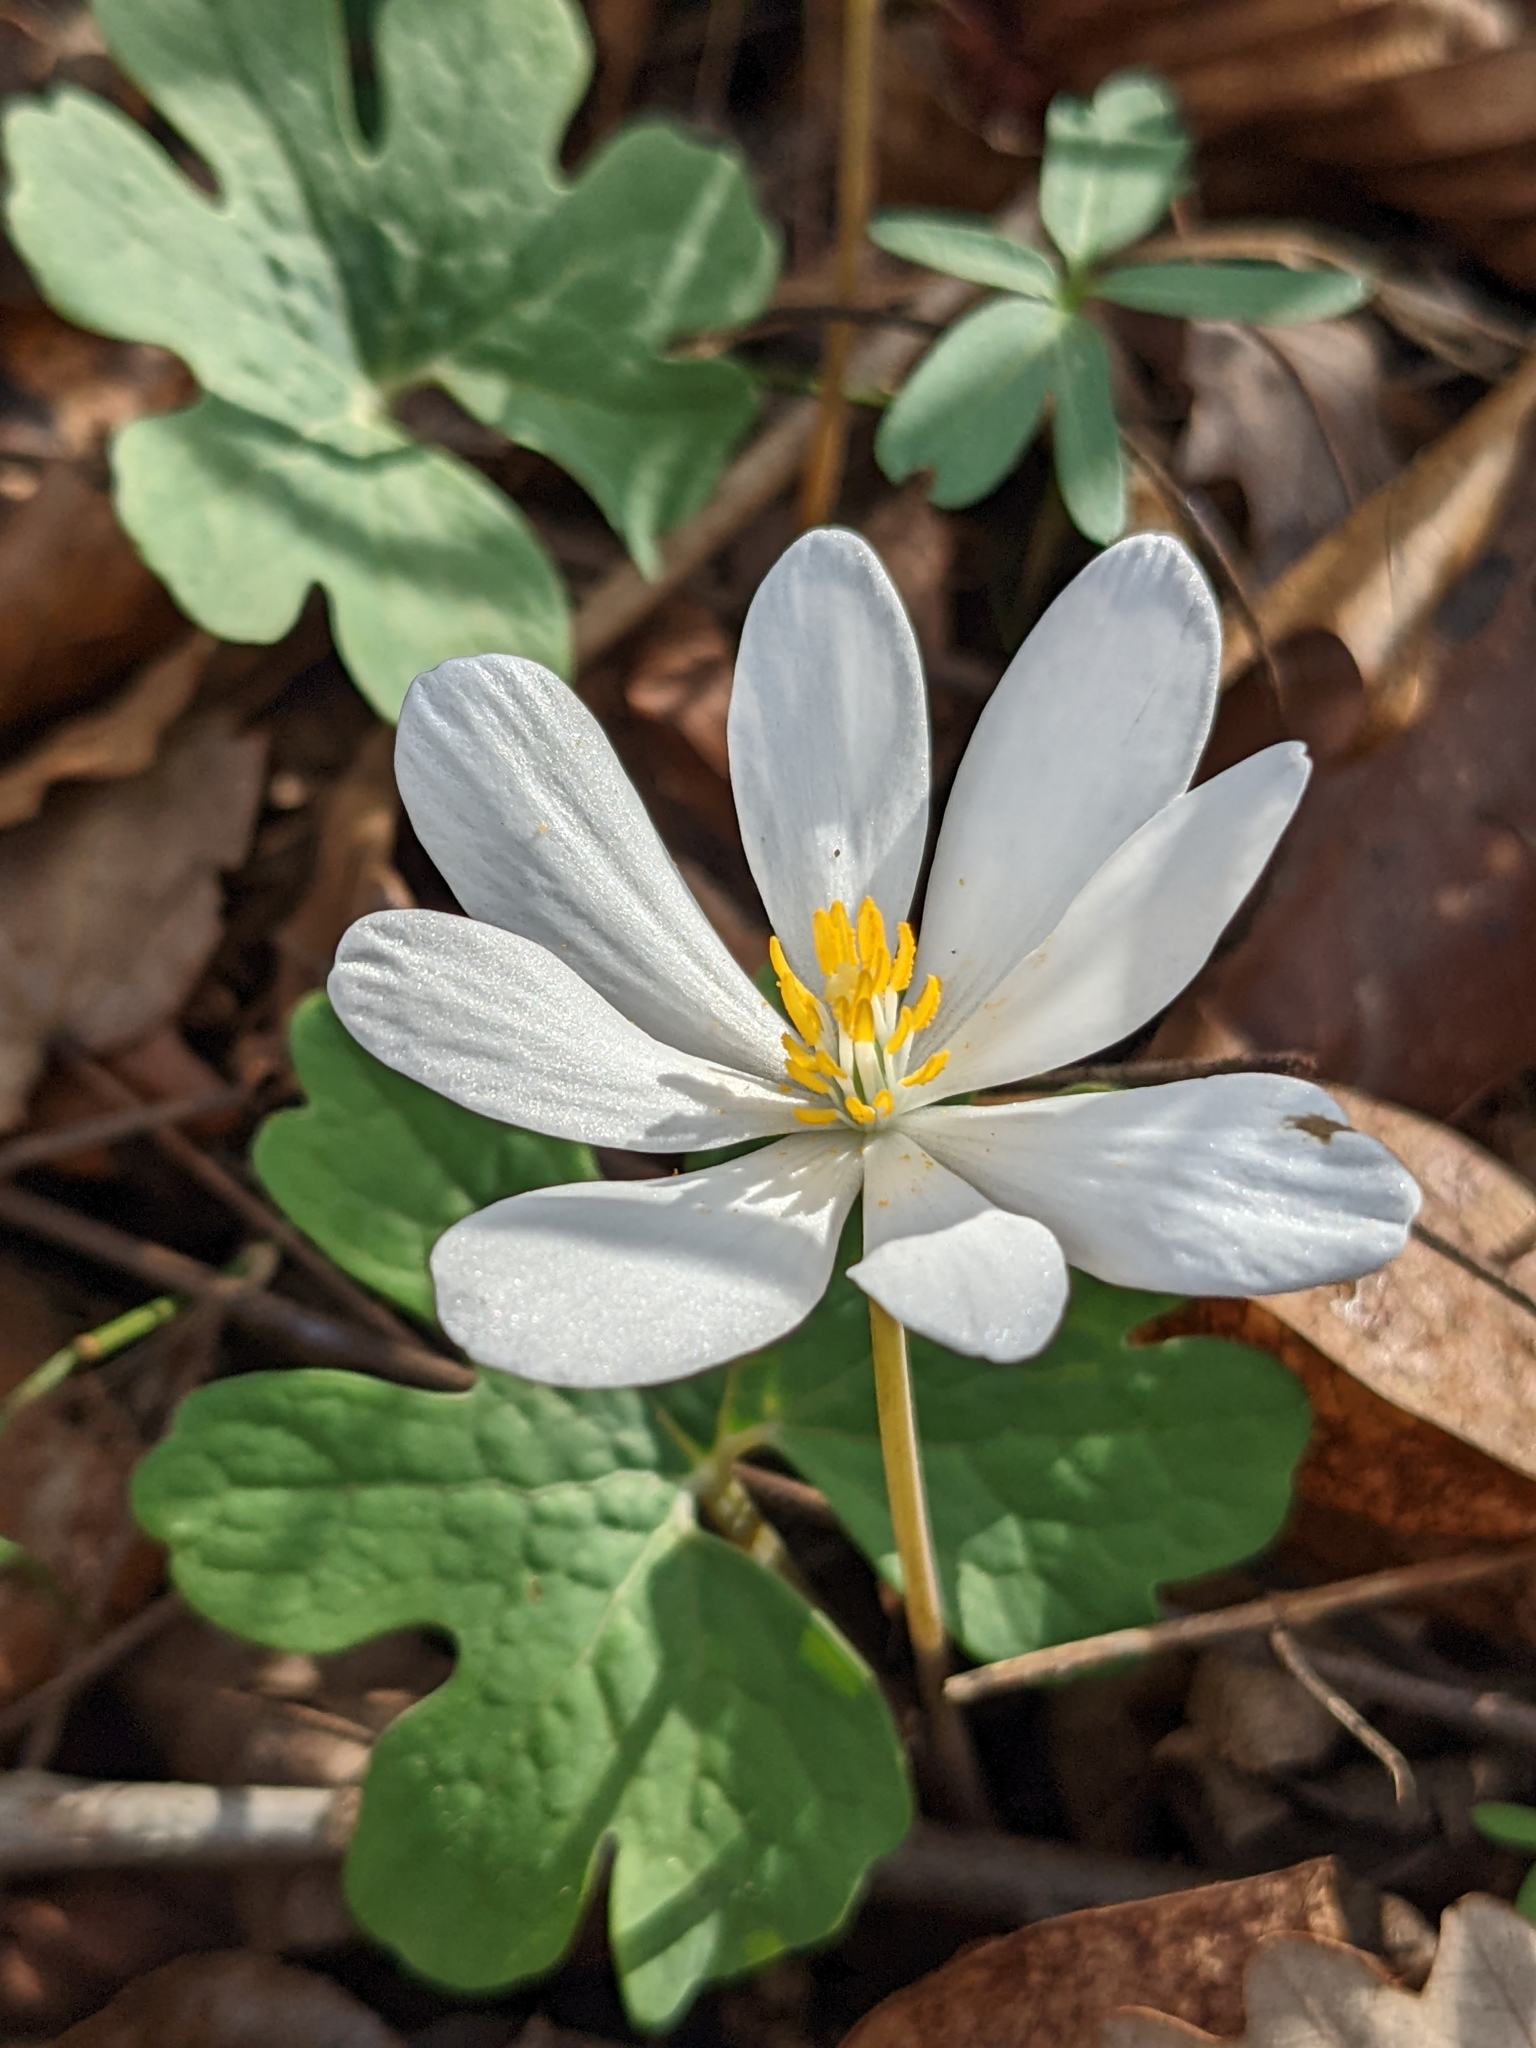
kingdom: Plantae
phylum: Tracheophyta
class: Magnoliopsida
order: Ranunculales
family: Papaveraceae
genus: Sanguinaria
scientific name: Sanguinaria canadensis
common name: Bloodroot
